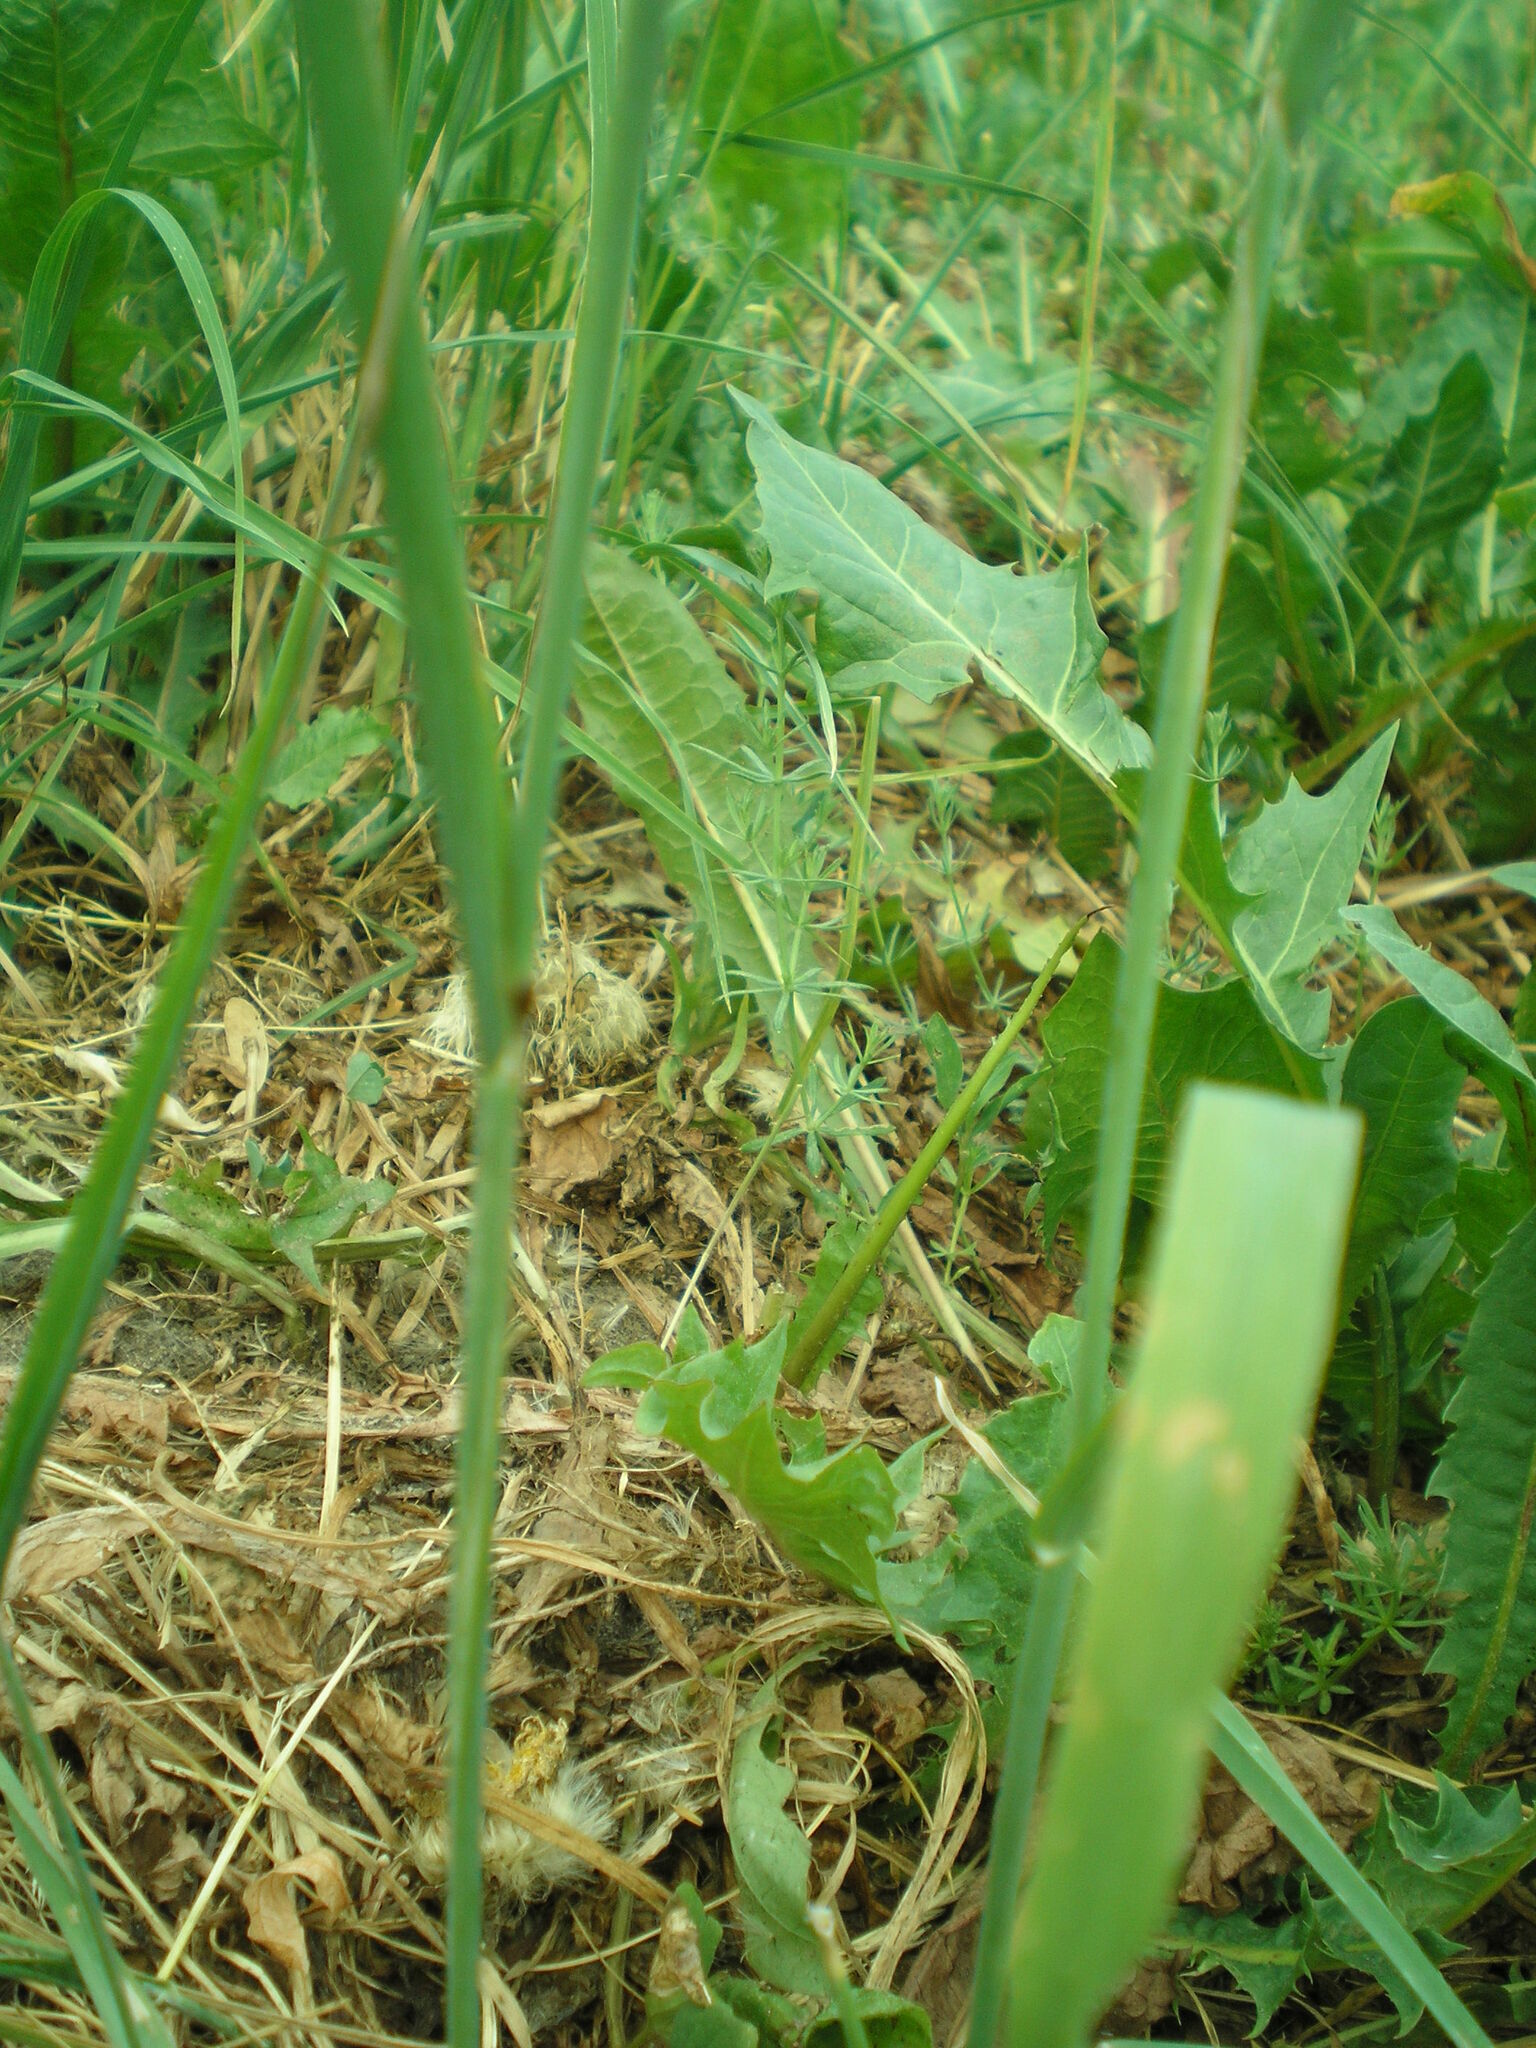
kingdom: Plantae
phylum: Tracheophyta
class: Liliopsida
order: Poales
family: Poaceae
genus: Phleum
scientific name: Phleum pratense
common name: Timothy grass
